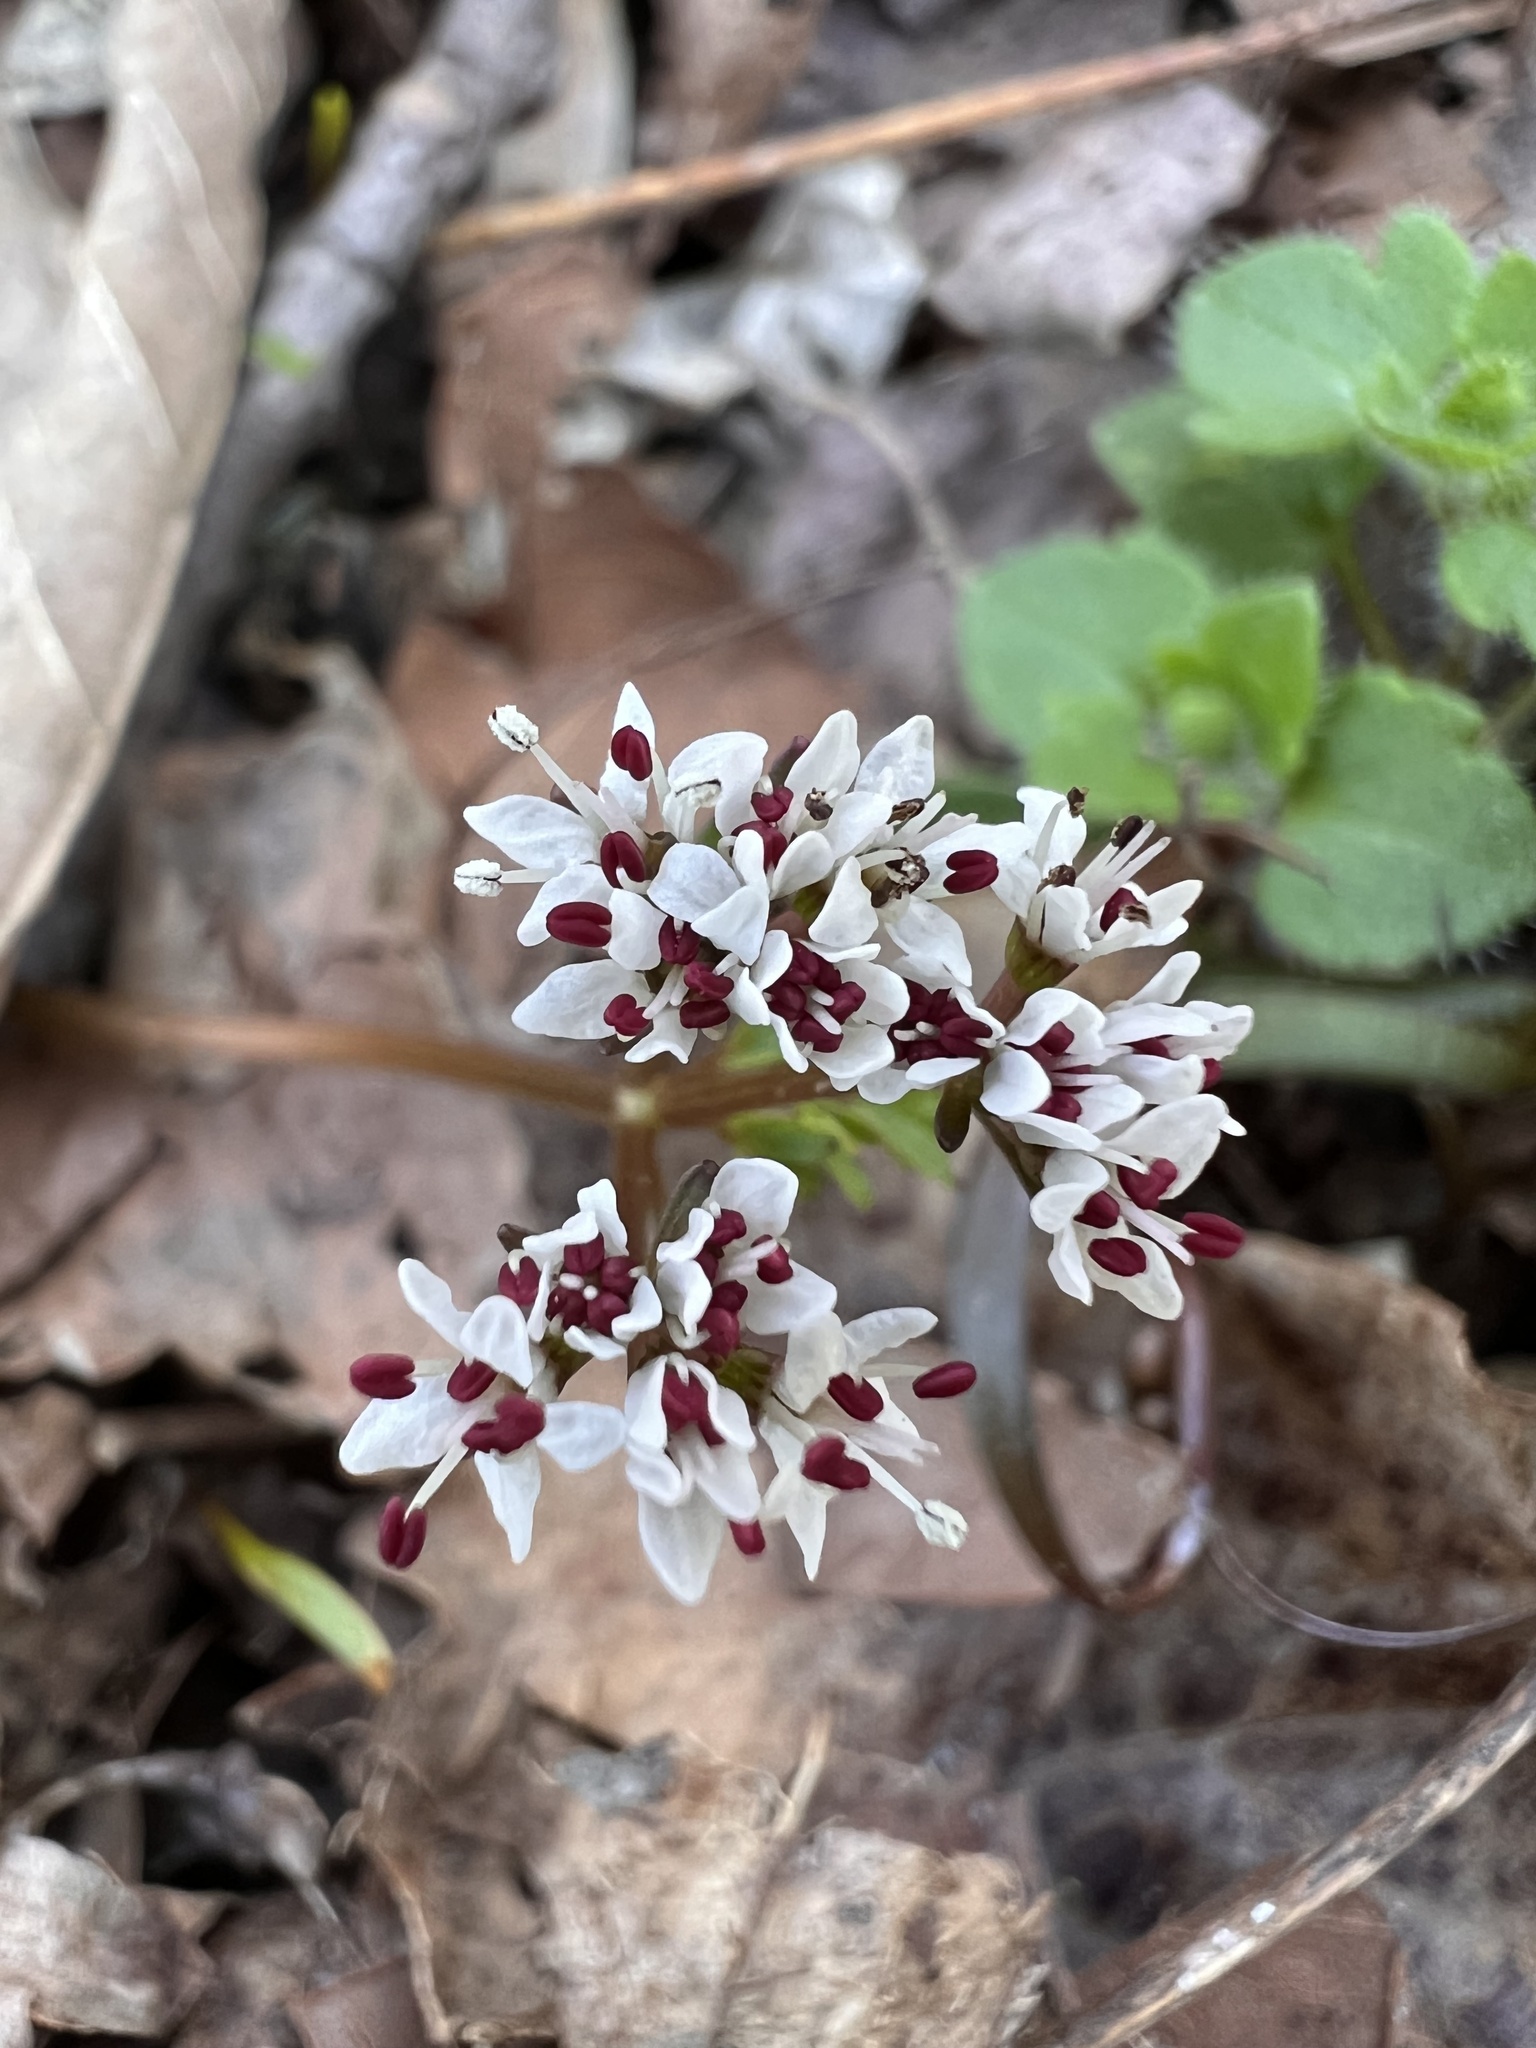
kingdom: Plantae
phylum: Tracheophyta
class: Magnoliopsida
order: Apiales
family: Apiaceae
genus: Erigenia
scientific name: Erigenia bulbosa
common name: Pepper-and-salt
